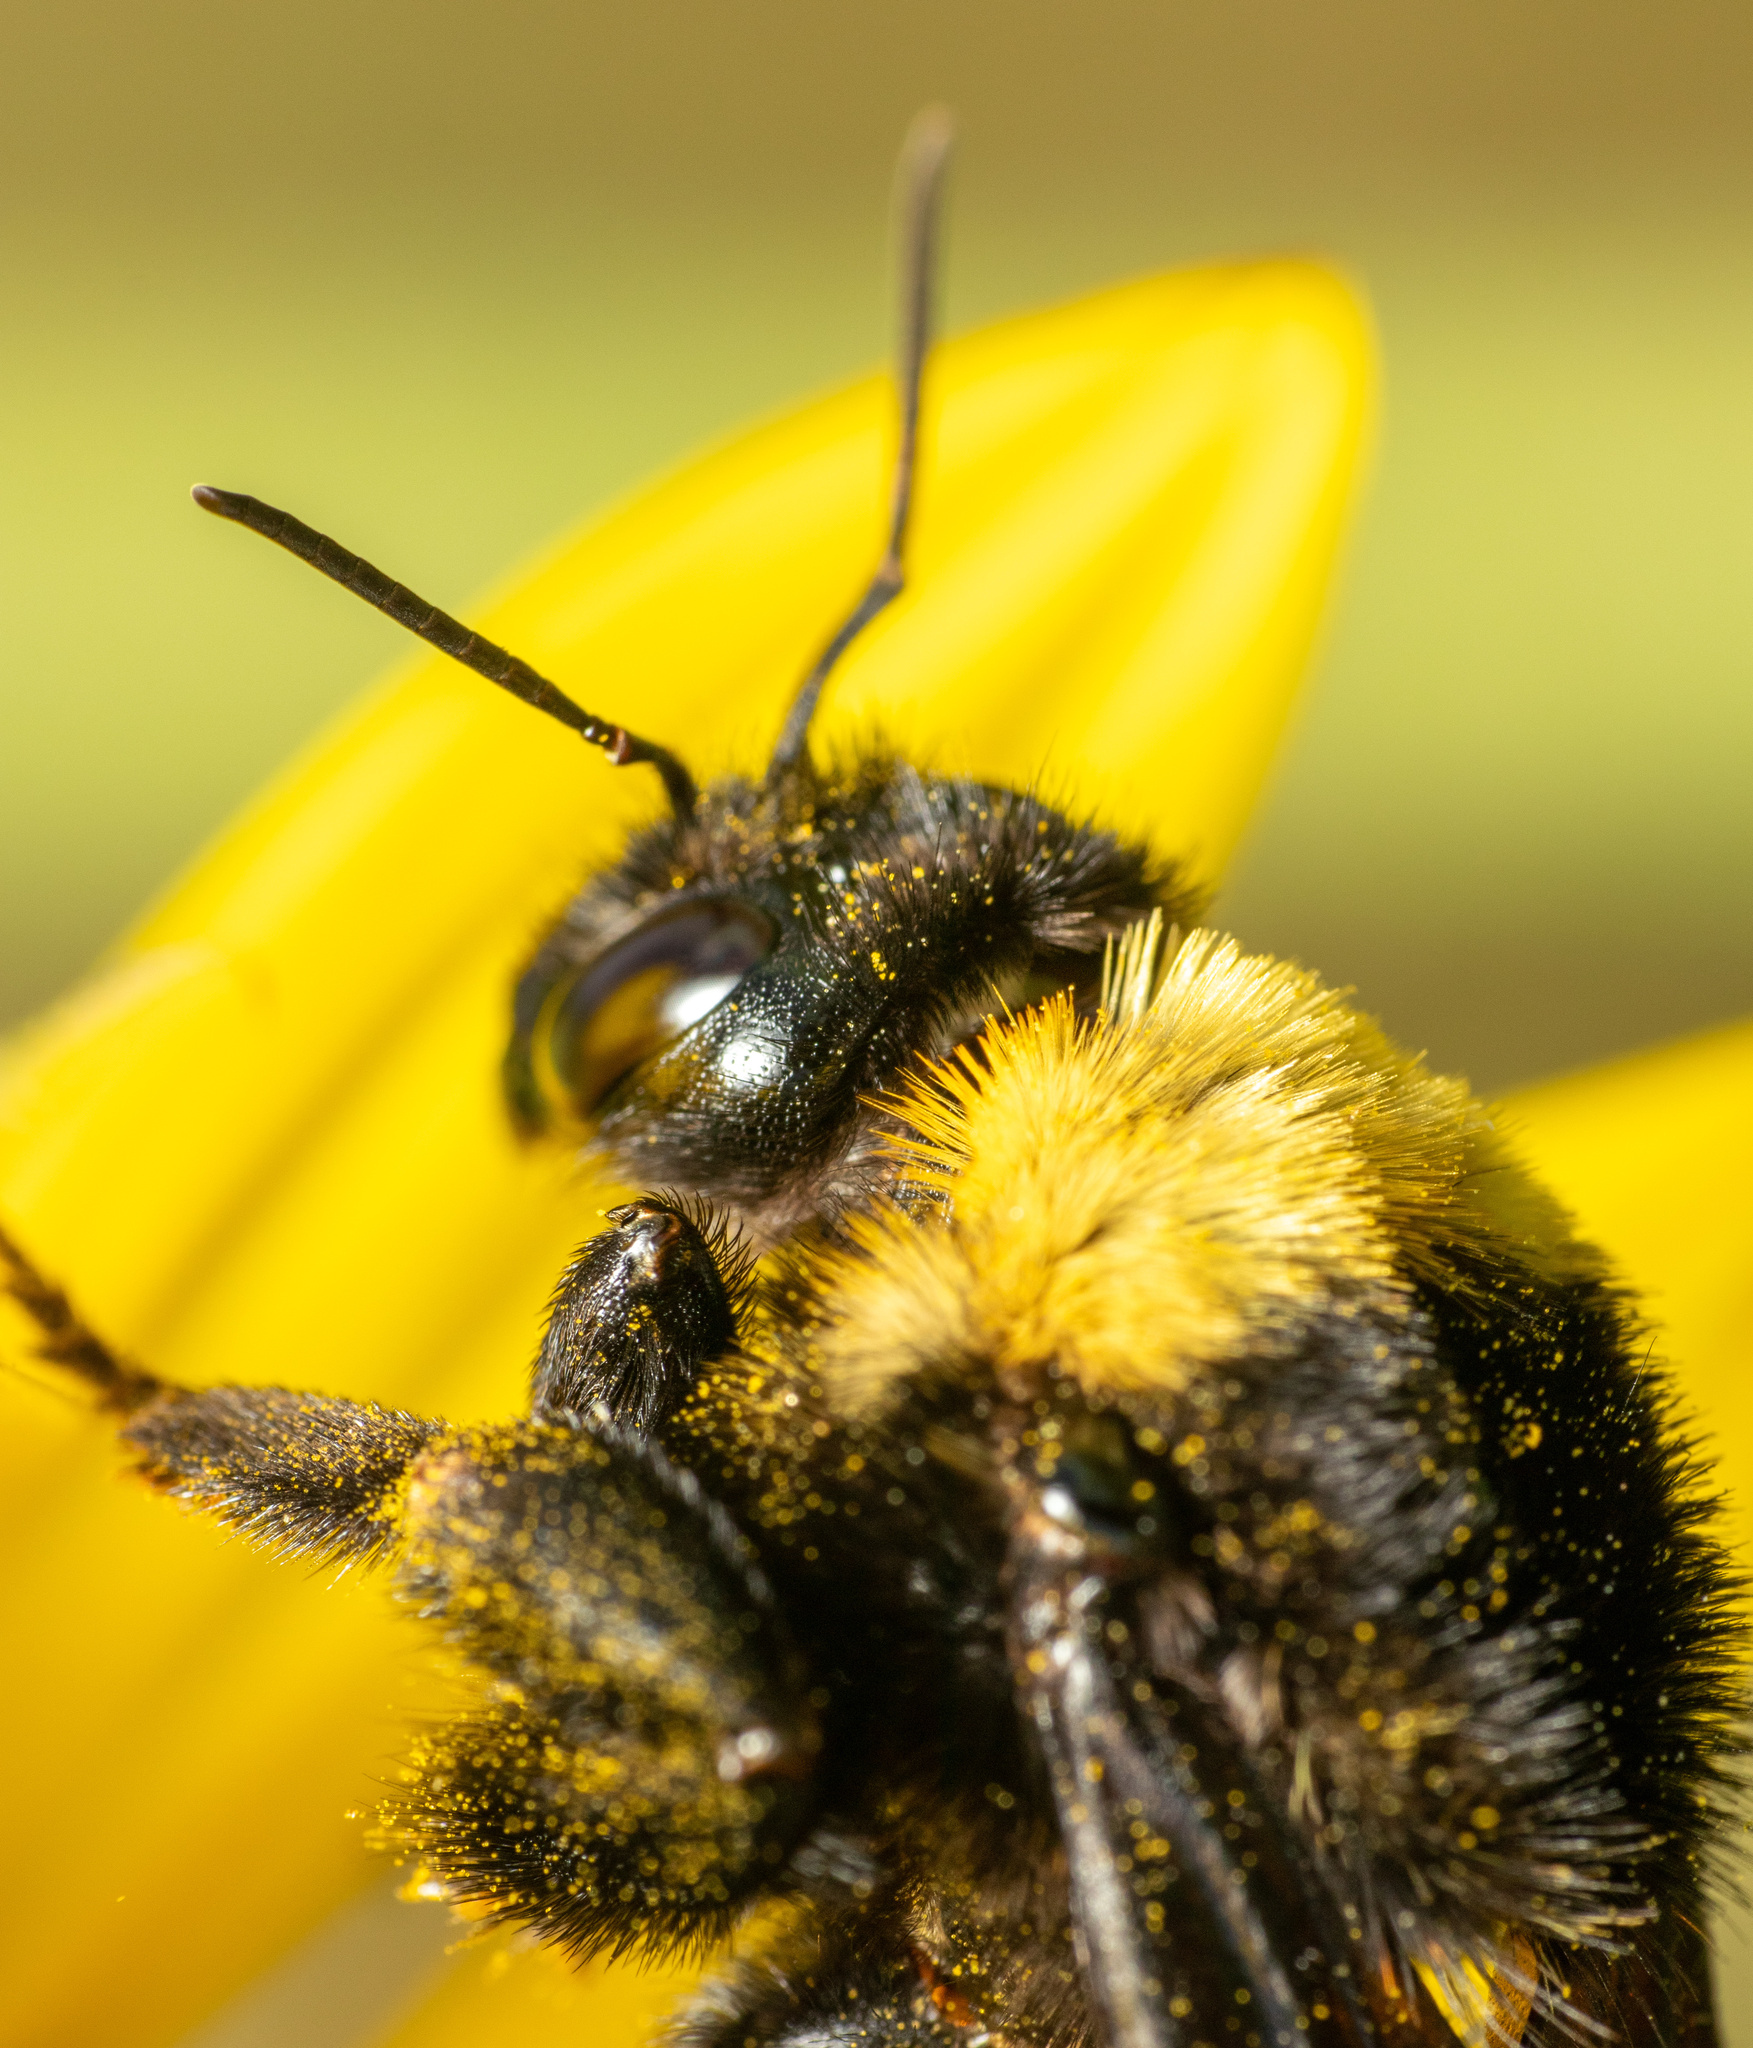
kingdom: Animalia
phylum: Arthropoda
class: Insecta
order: Hymenoptera
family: Apidae
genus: Bombus
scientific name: Bombus pensylvanicus
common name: Bumble bee
